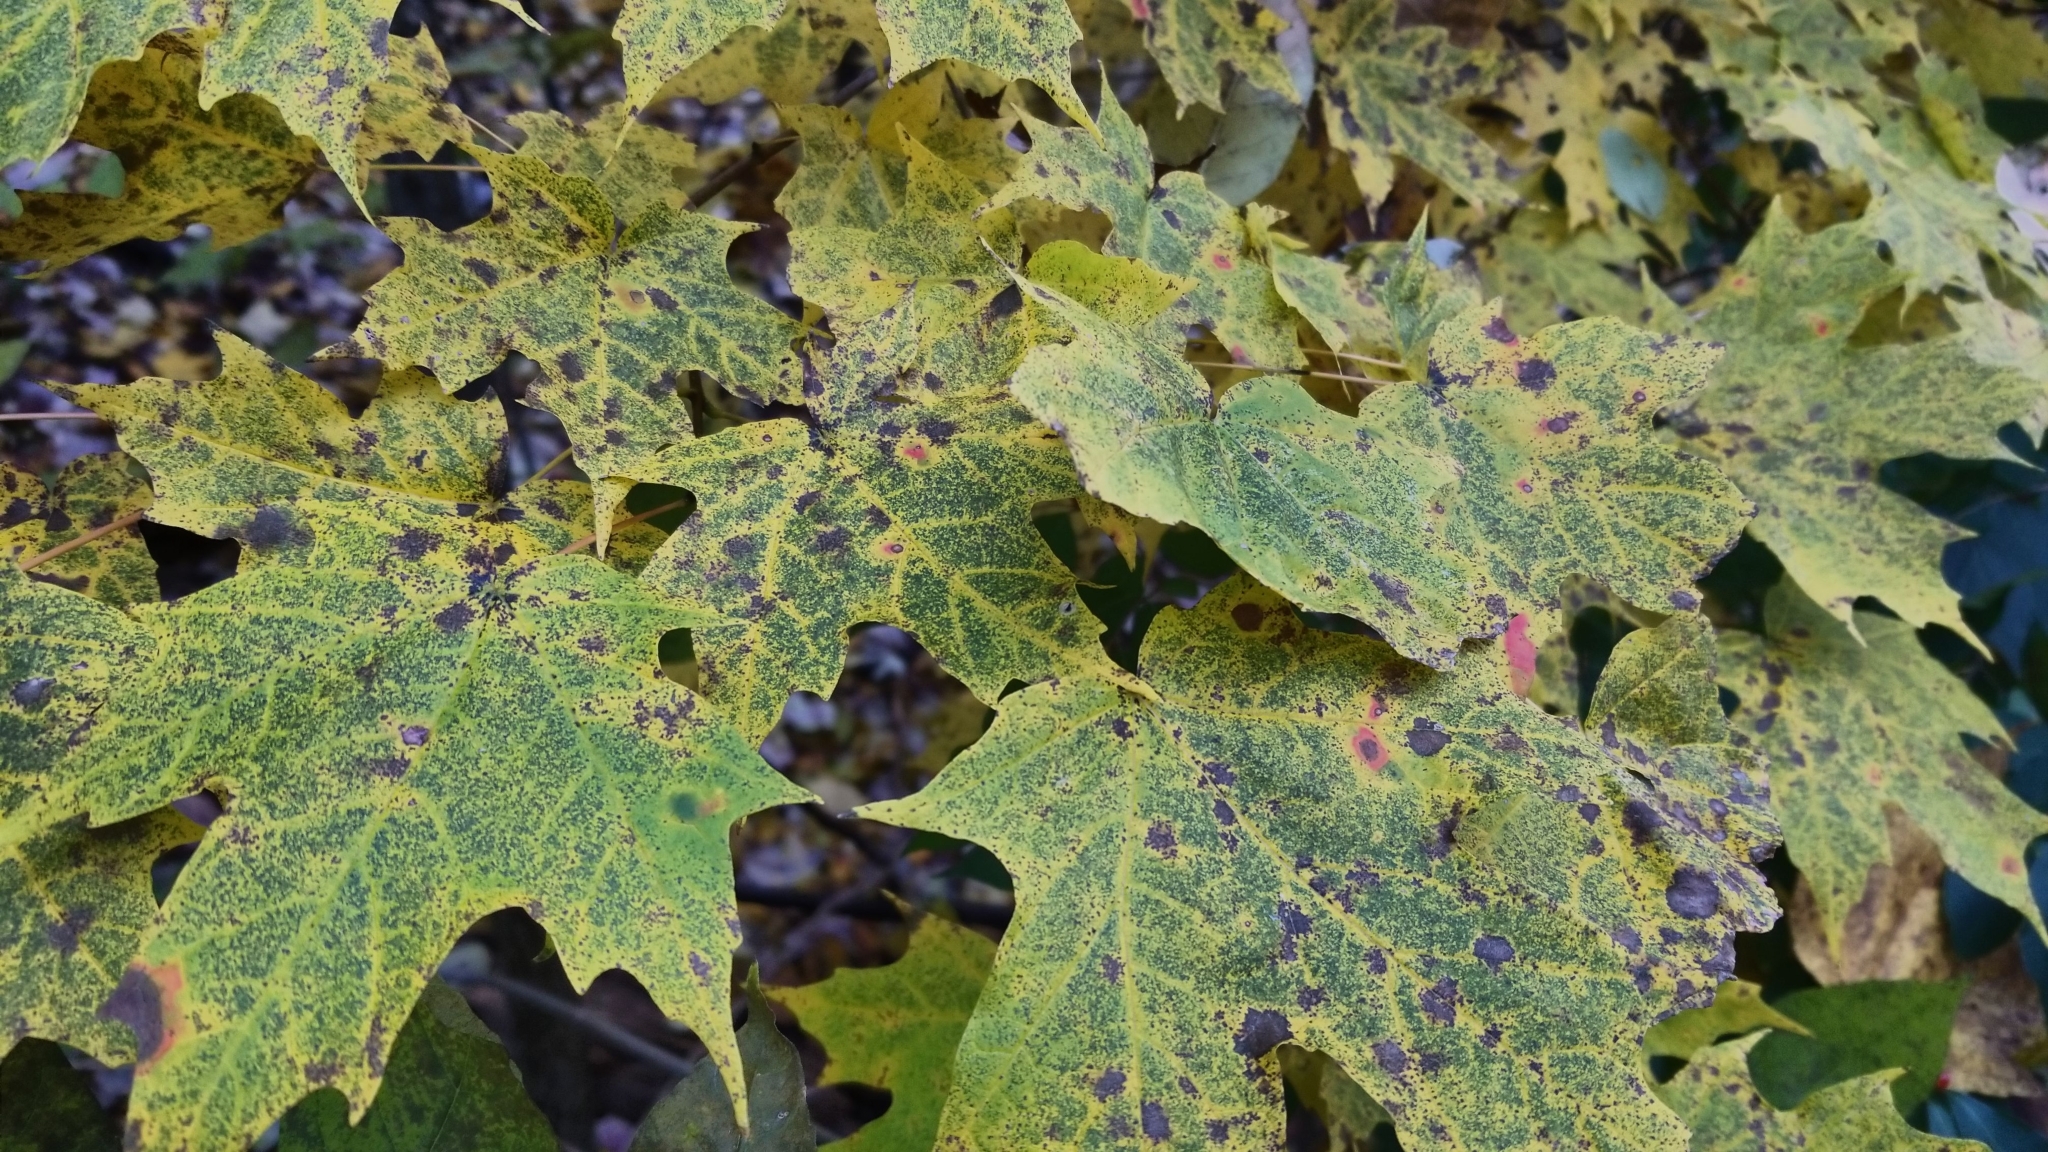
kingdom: Plantae
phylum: Tracheophyta
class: Magnoliopsida
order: Sapindales
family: Sapindaceae
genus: Acer
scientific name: Acer saccharum
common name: Sugar maple
